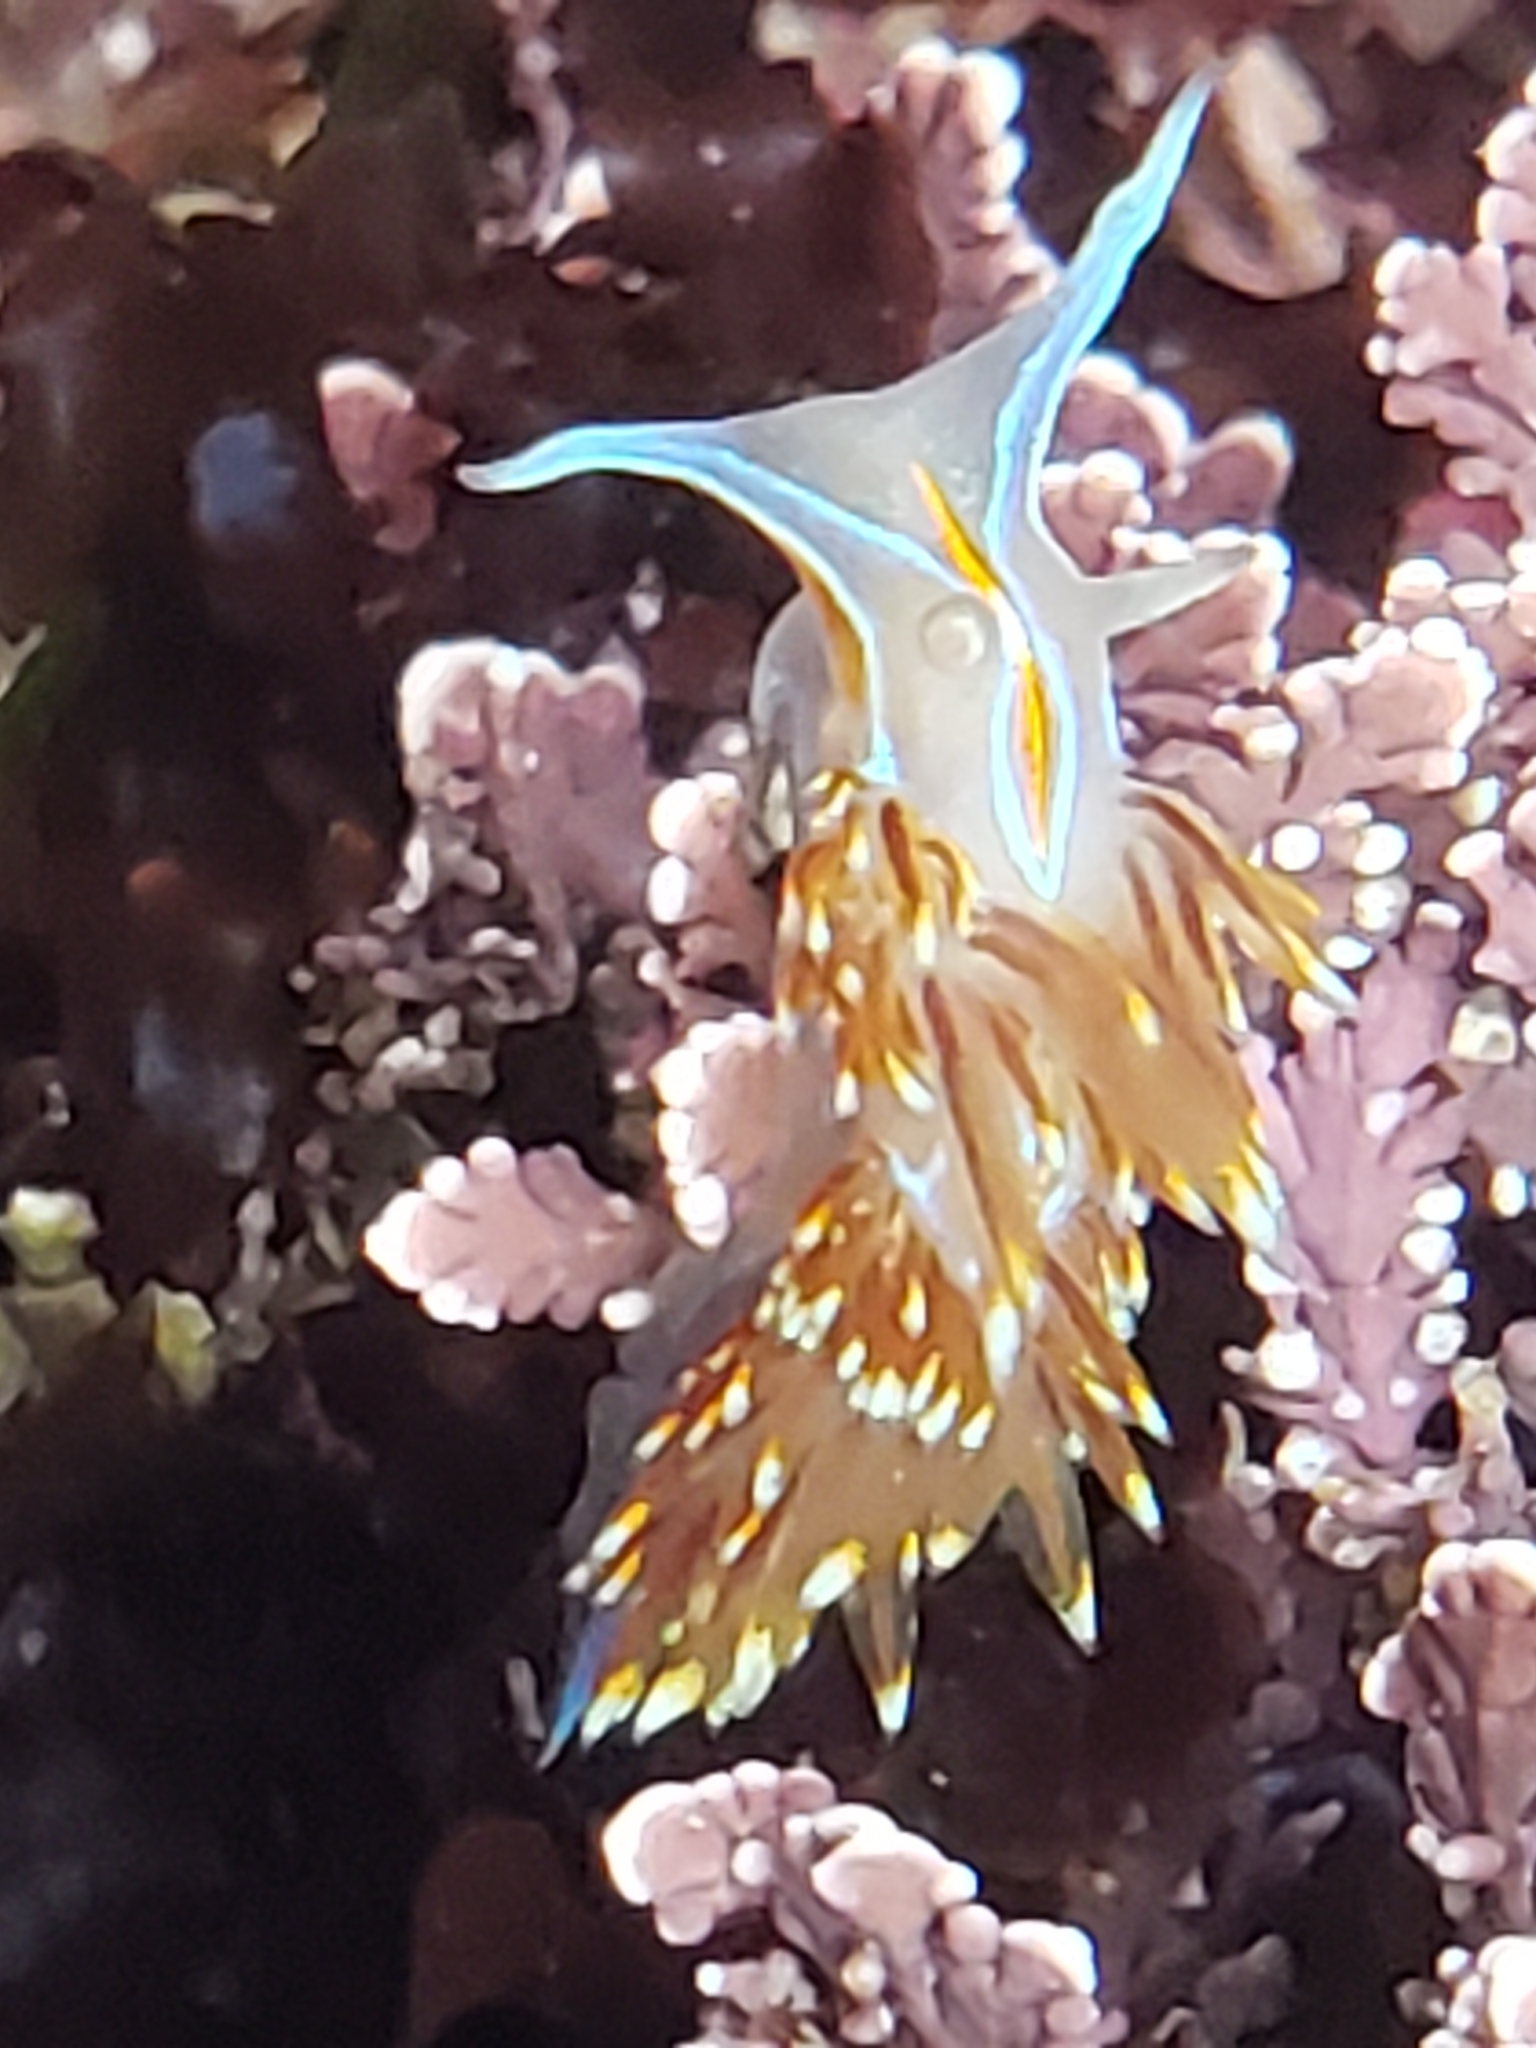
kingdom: Animalia
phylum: Mollusca
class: Gastropoda
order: Nudibranchia
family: Myrrhinidae
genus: Hermissenda
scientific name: Hermissenda opalescens
